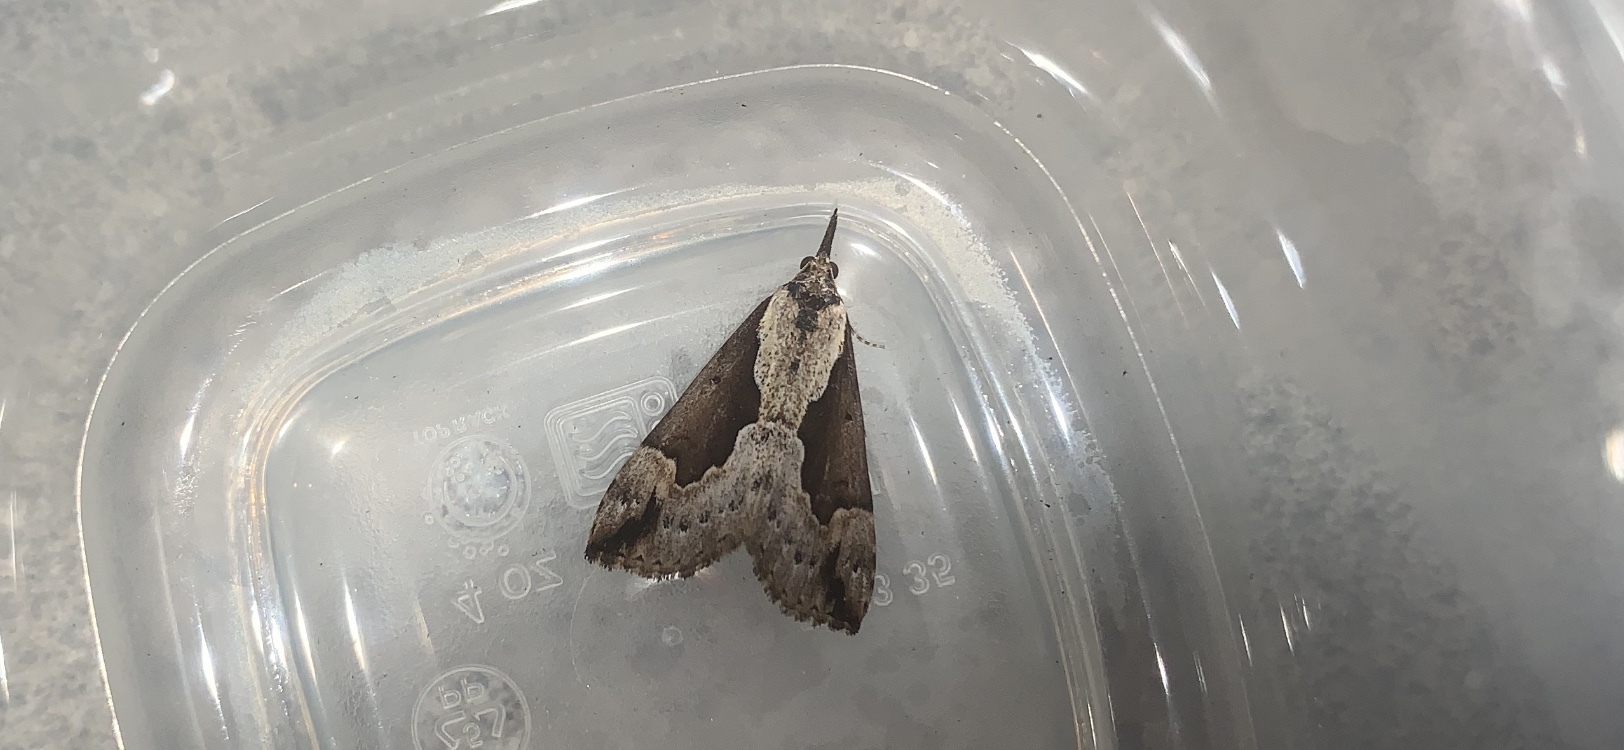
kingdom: Animalia
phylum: Arthropoda
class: Insecta
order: Lepidoptera
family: Erebidae
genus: Hypena
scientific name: Hypena baltimoralis
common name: Baltimore snout
